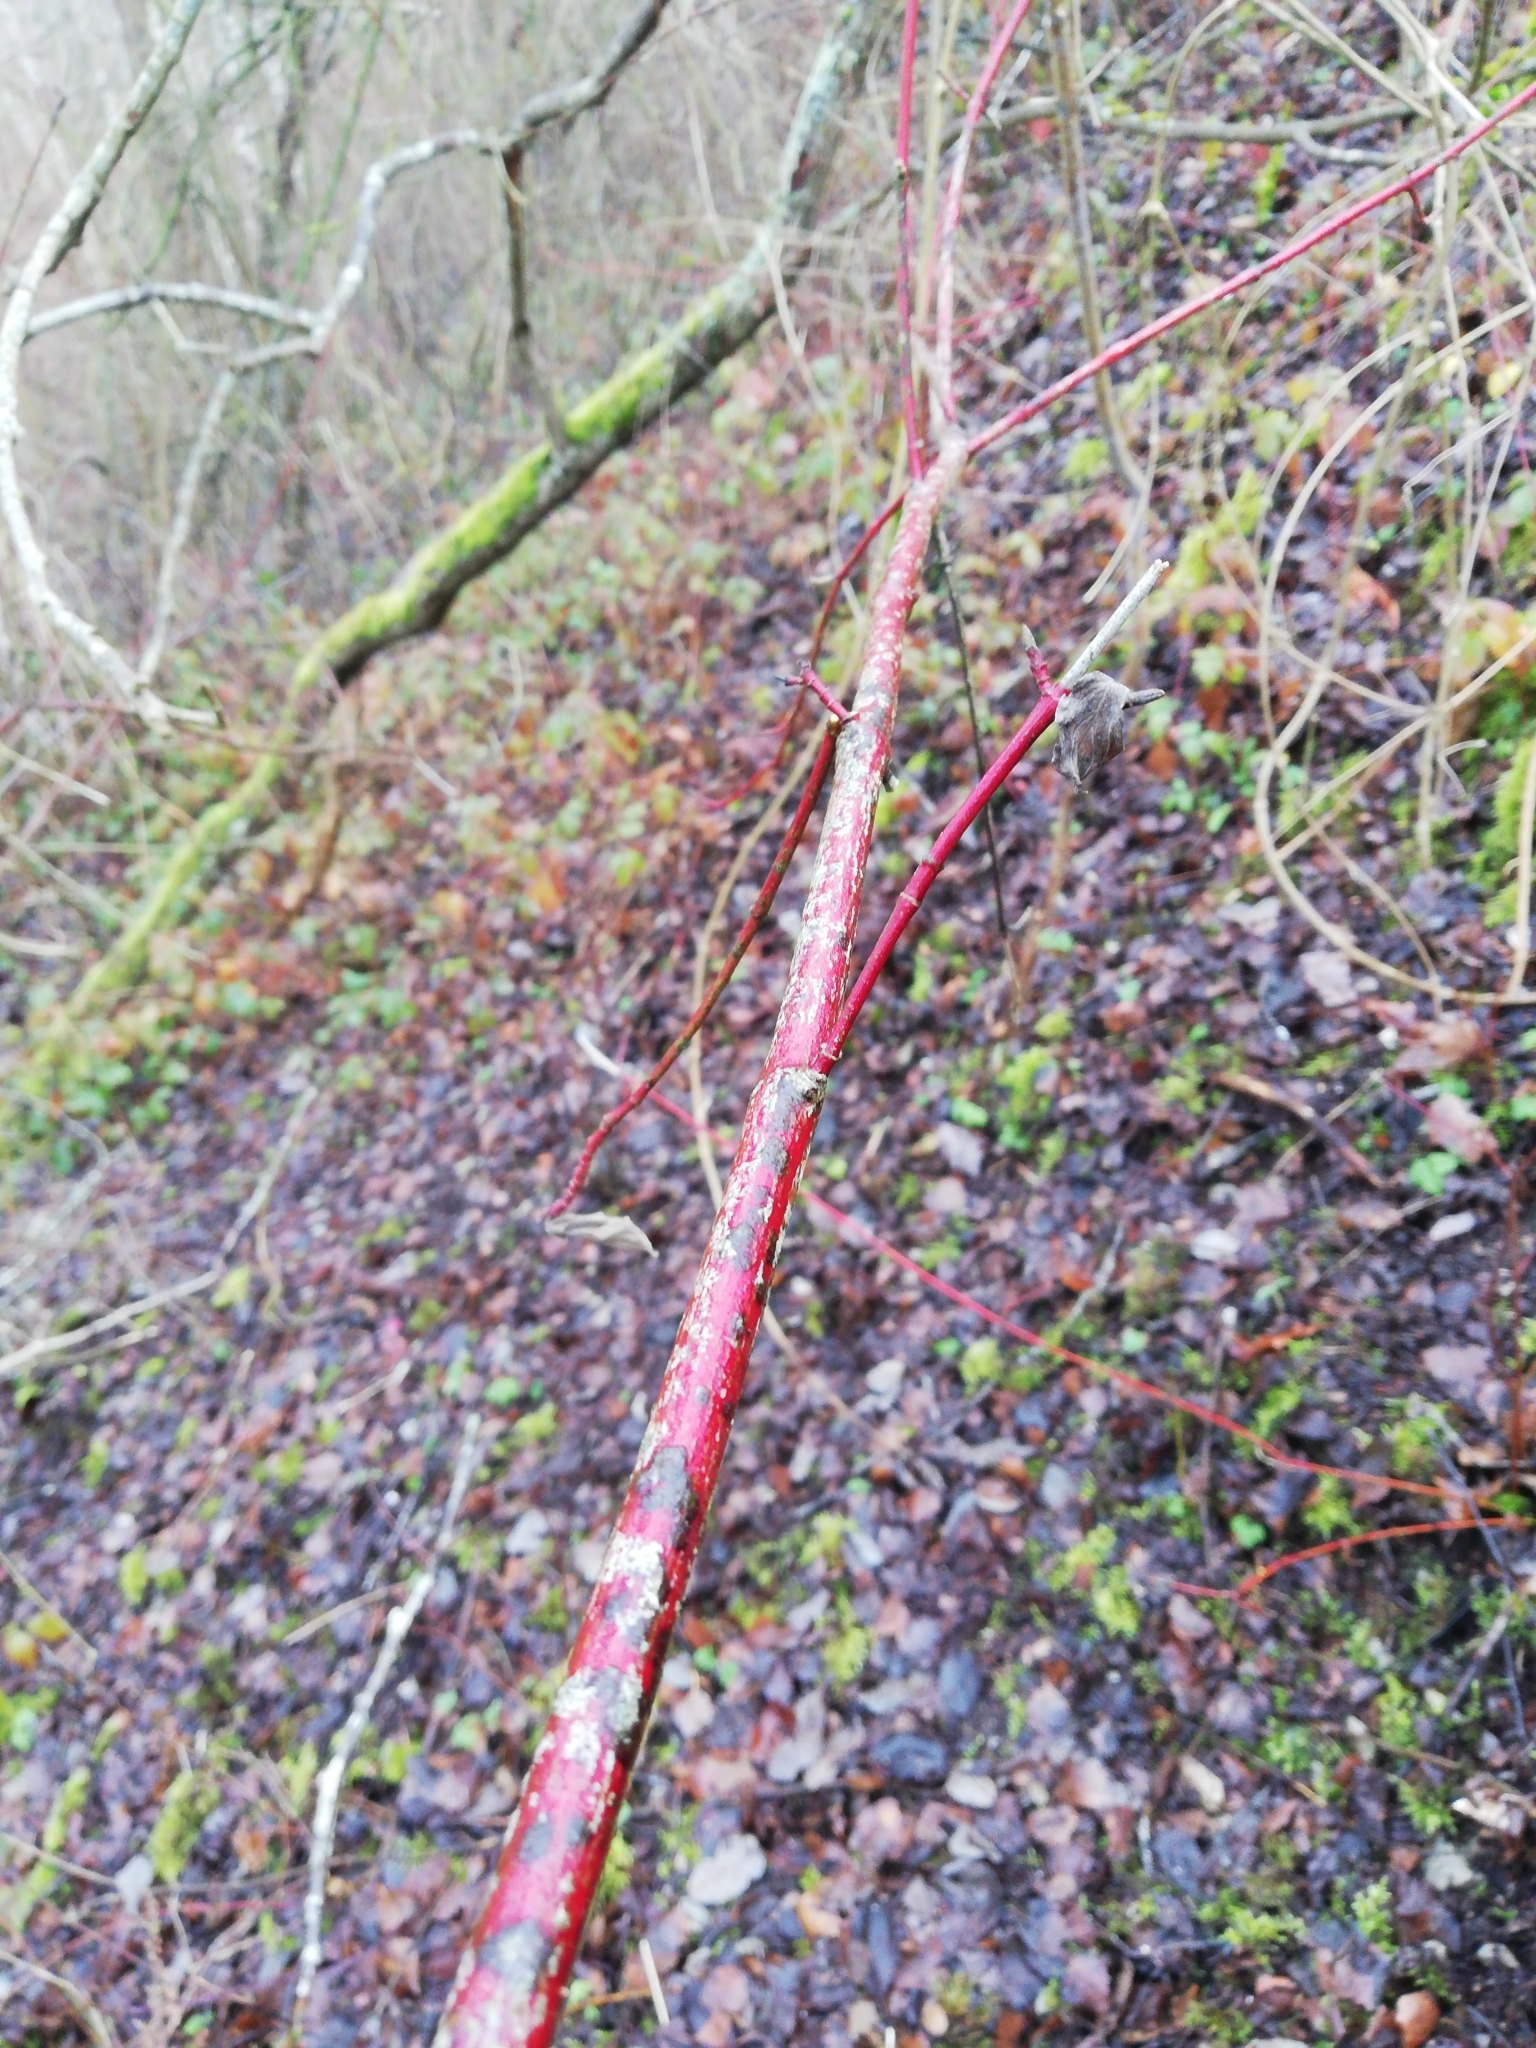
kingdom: Plantae
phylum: Tracheophyta
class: Magnoliopsida
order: Cornales
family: Cornaceae
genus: Cornus
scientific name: Cornus sericea
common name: Red-osier dogwood
